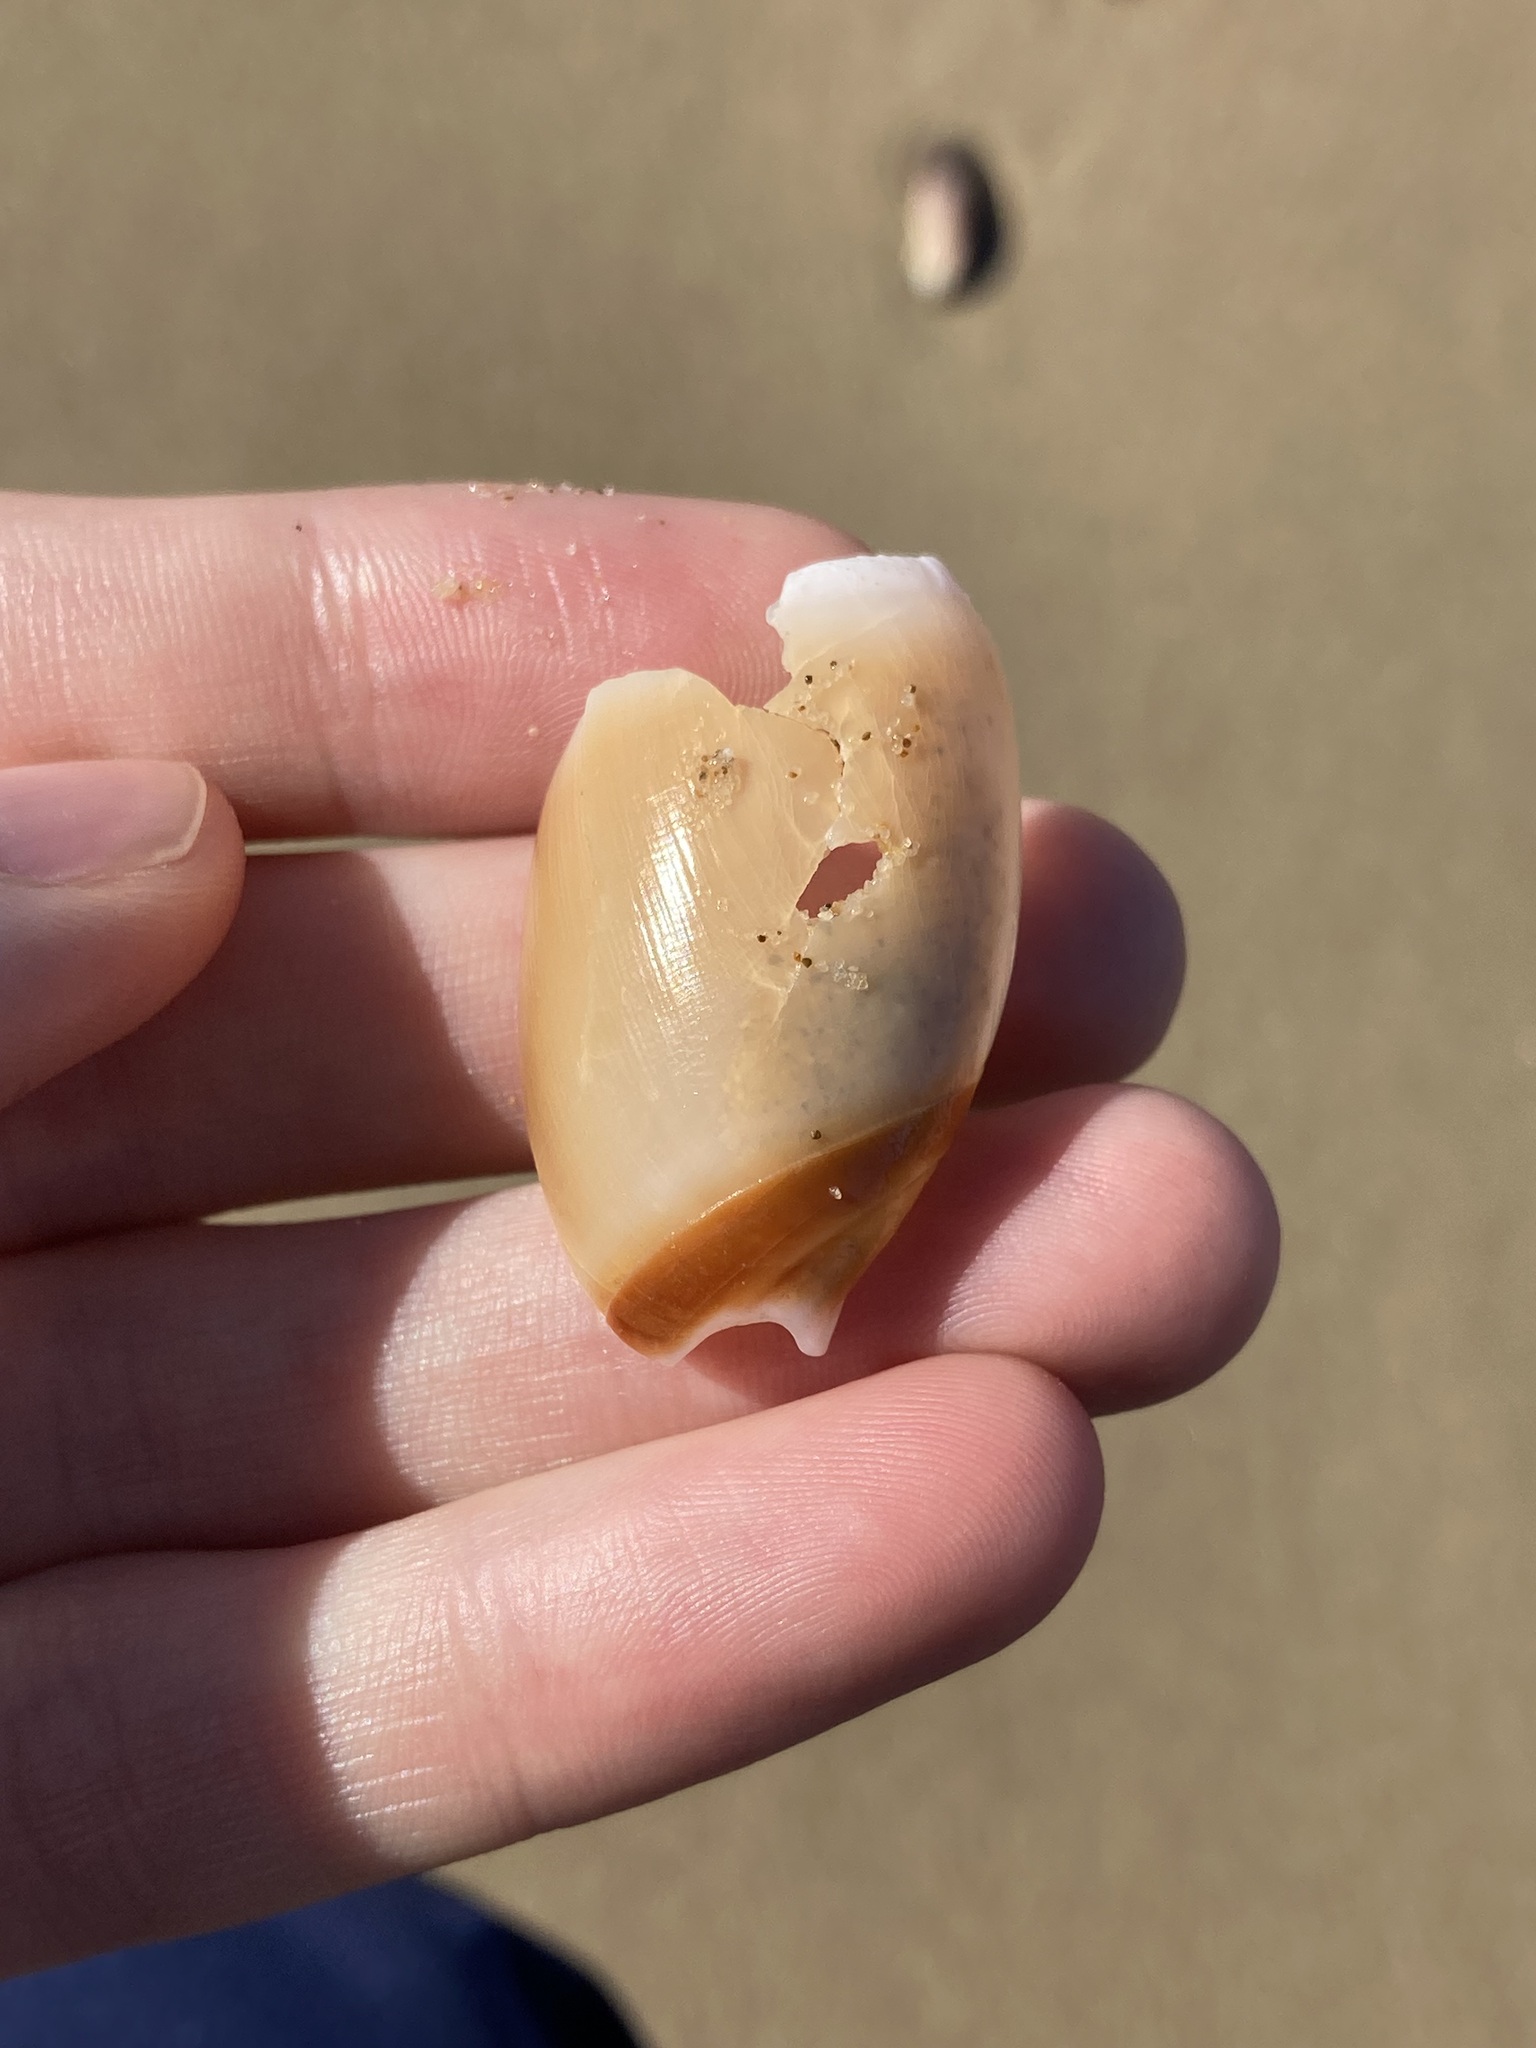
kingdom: Animalia
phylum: Mollusca
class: Gastropoda
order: Neogastropoda
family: Ancillariidae
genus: Ancillista
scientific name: Ancillista velesiana
